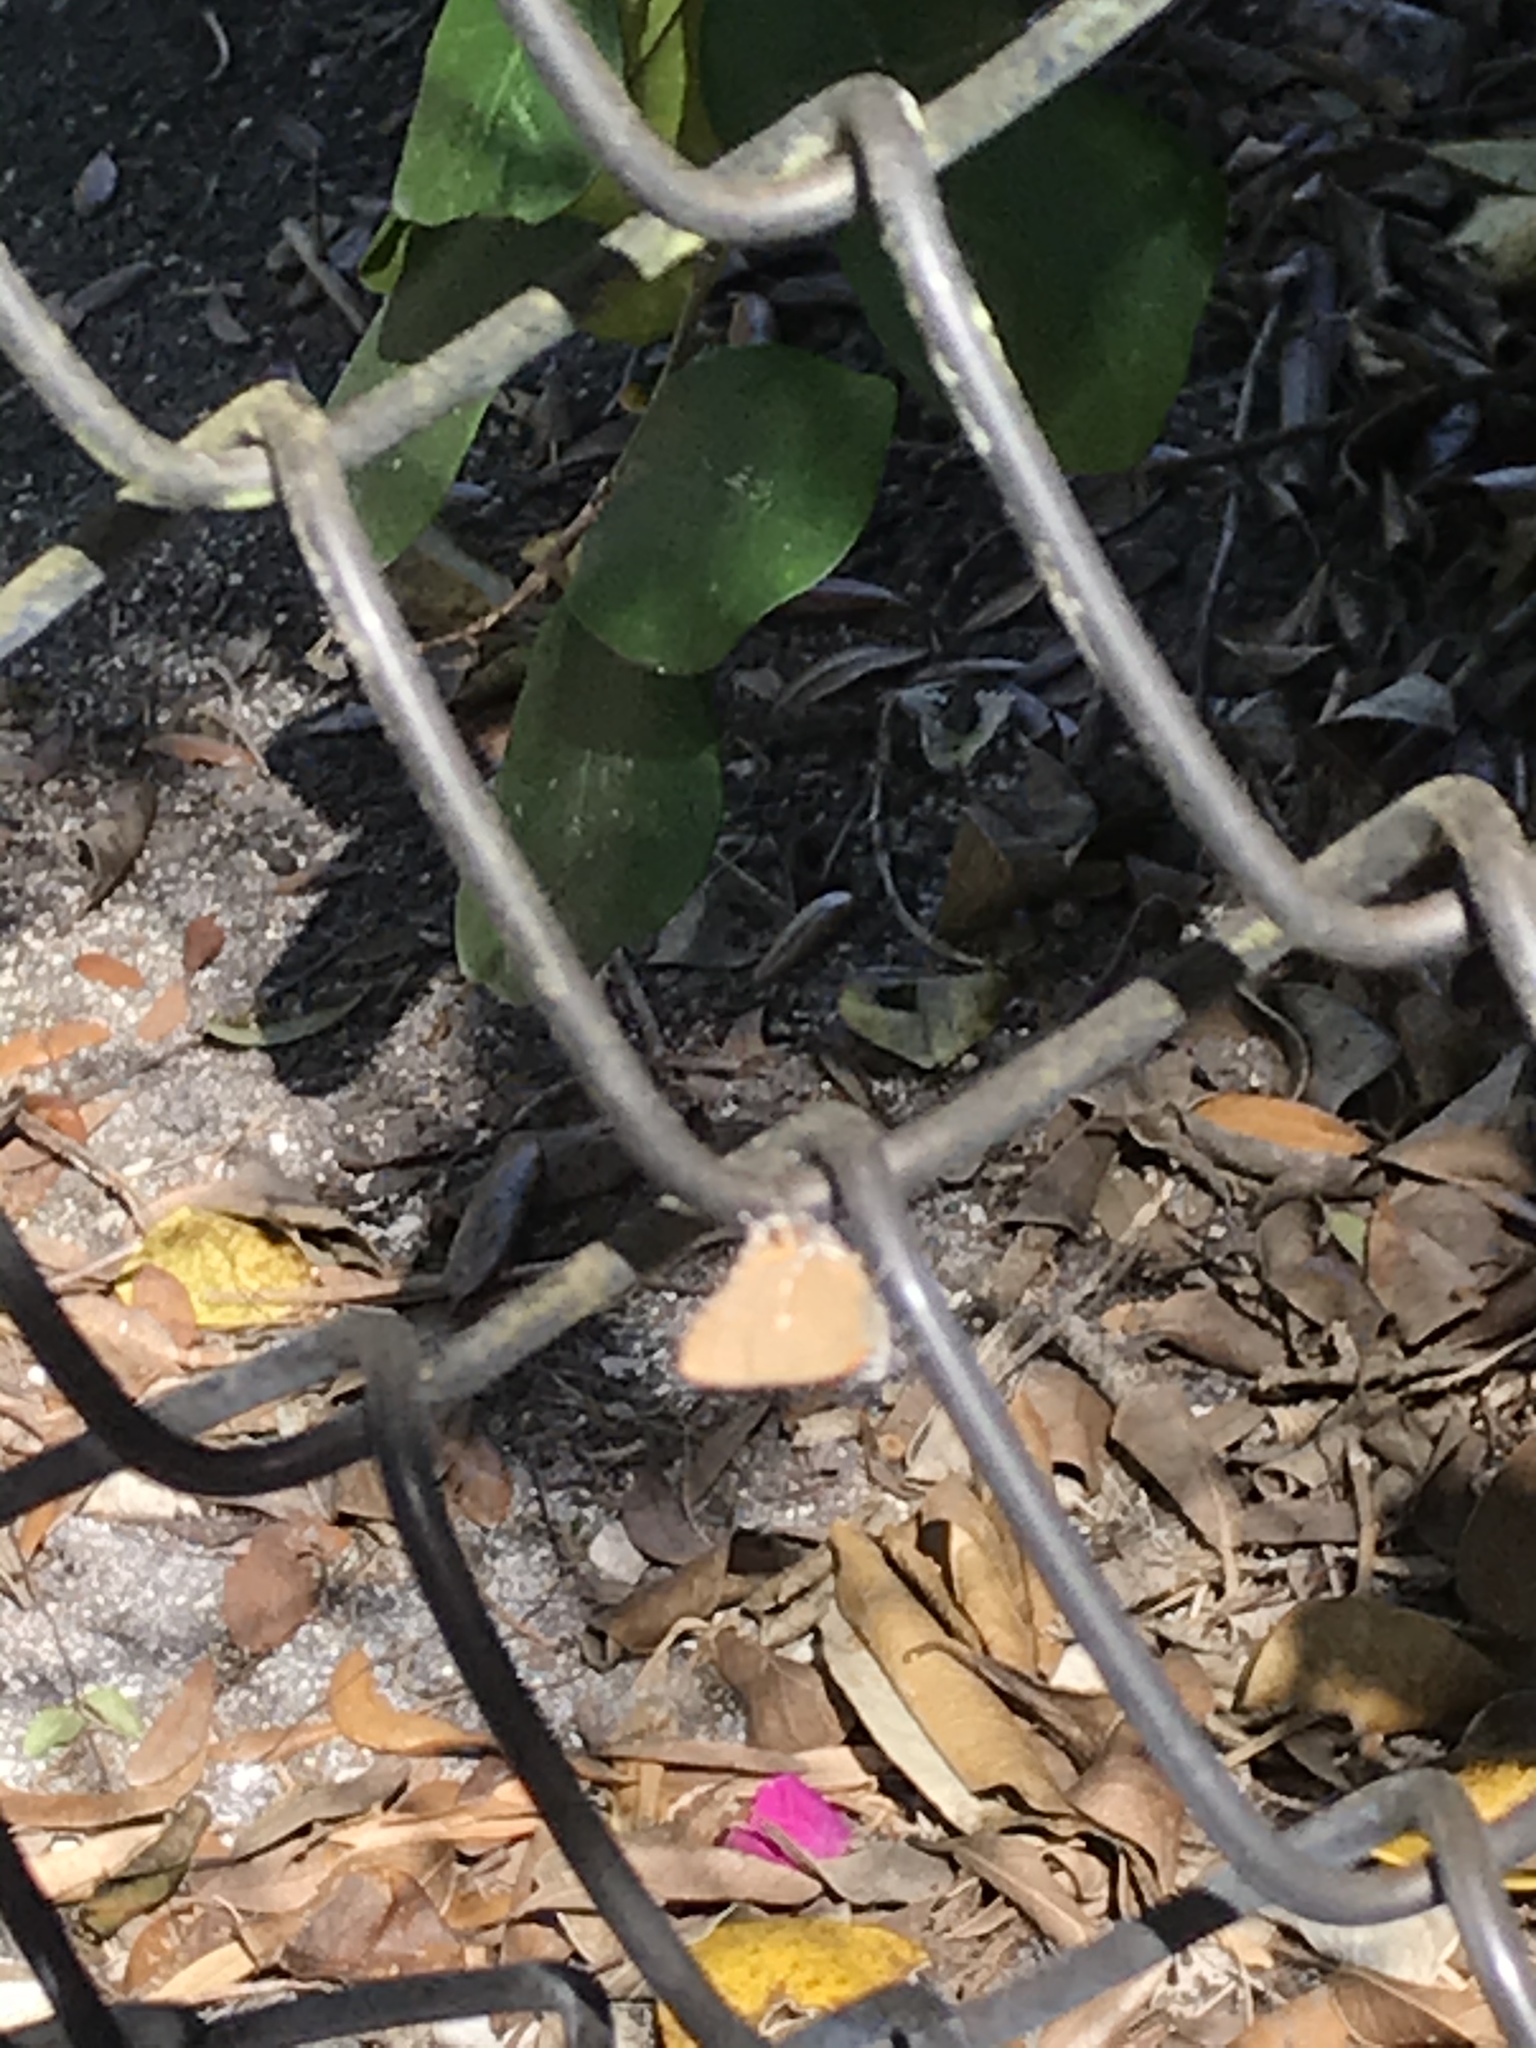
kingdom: Animalia
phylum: Arthropoda
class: Insecta
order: Lepidoptera
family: Lycaenidae
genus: Thecla
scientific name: Thecla angelia
